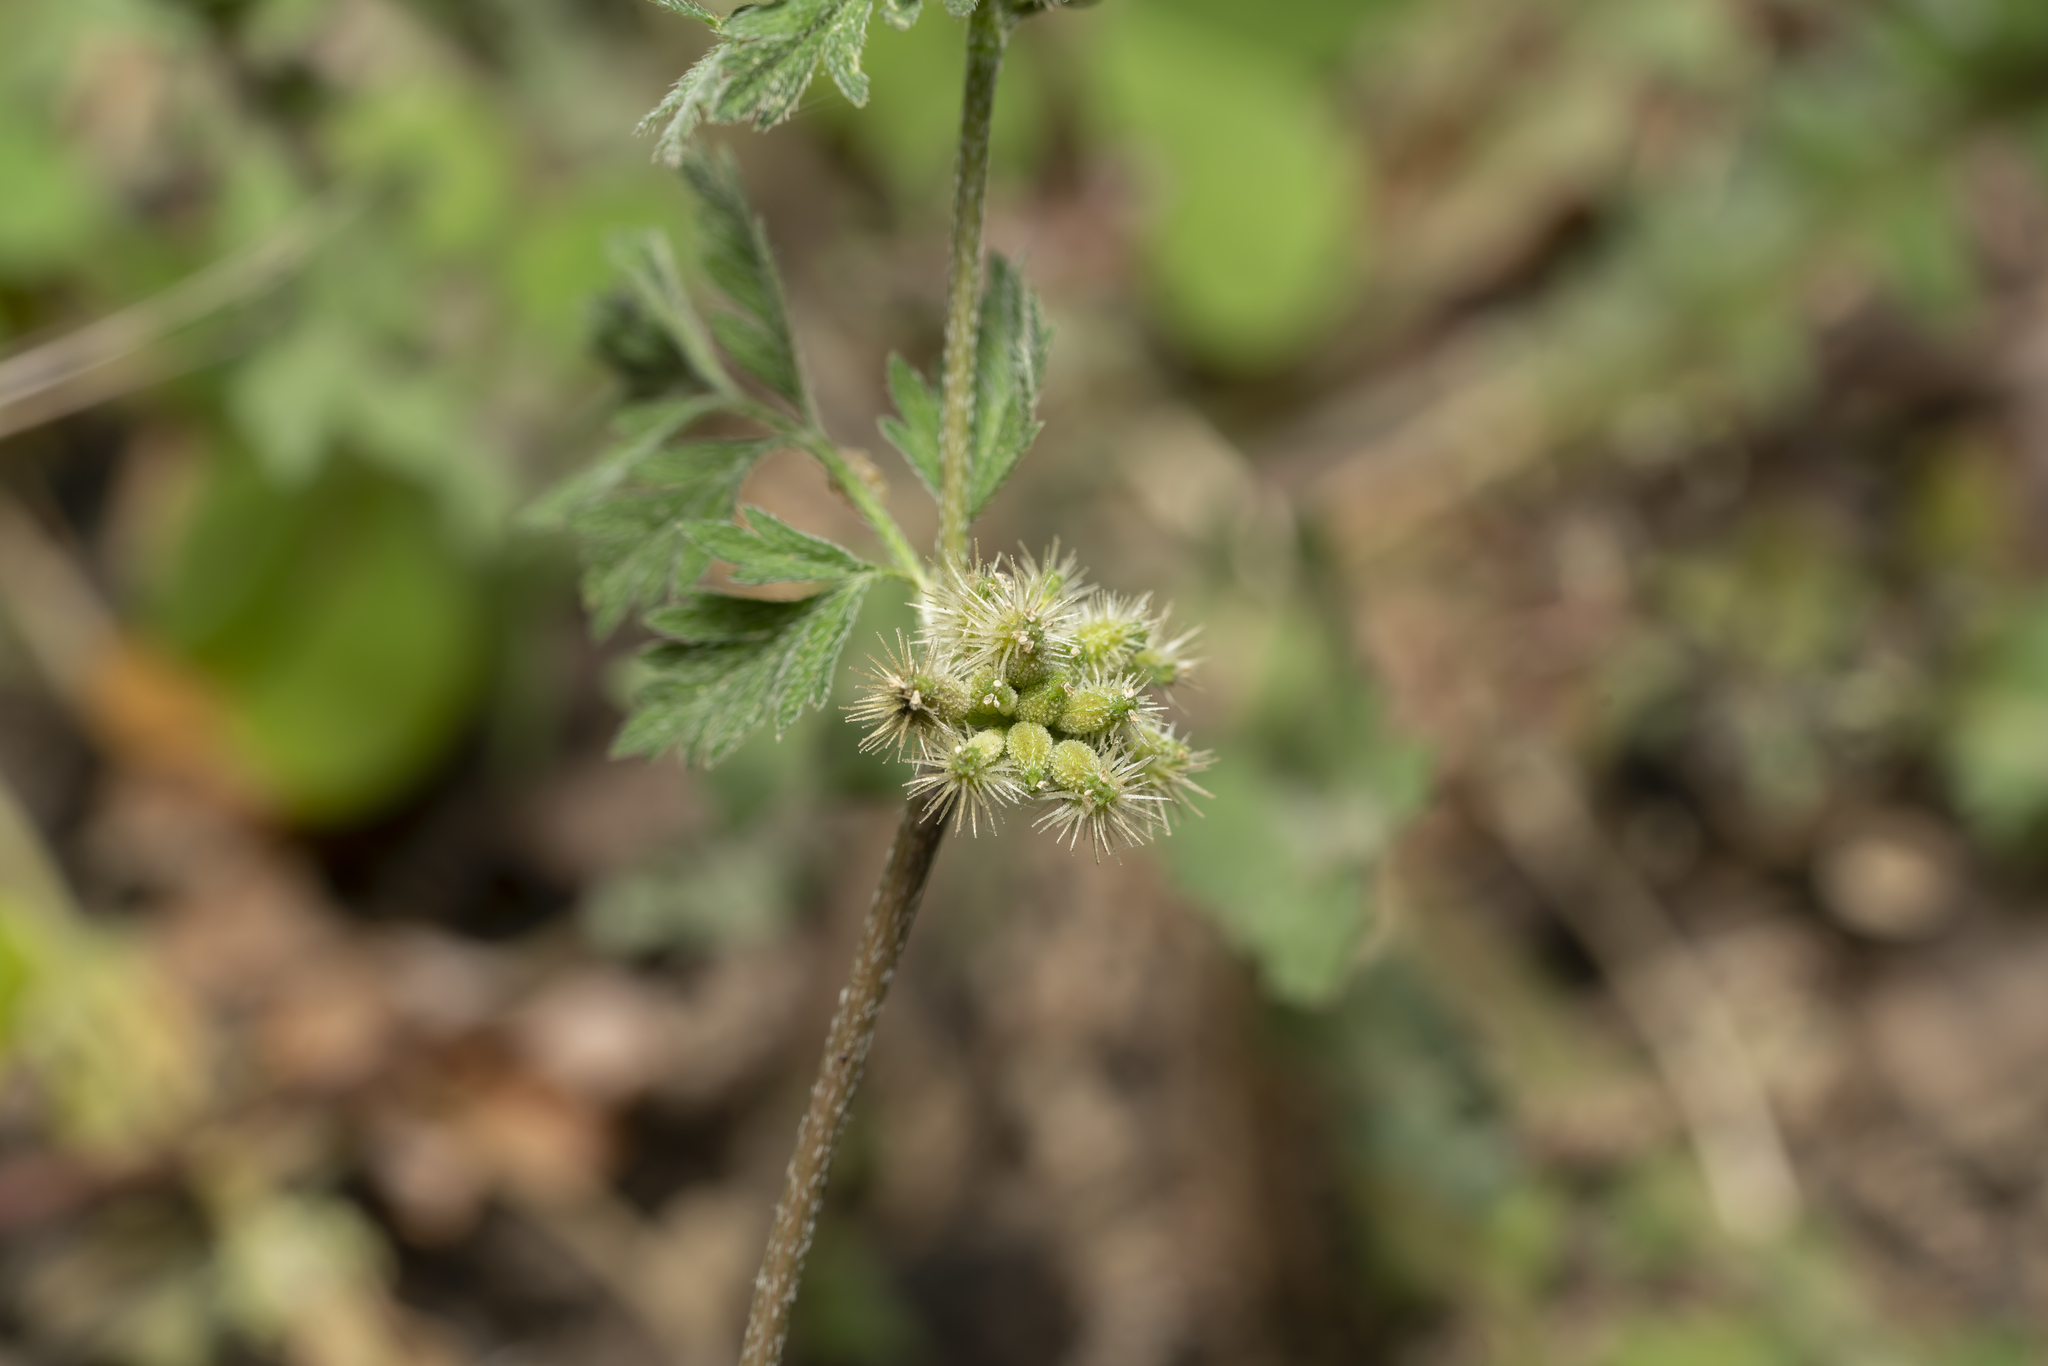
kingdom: Plantae
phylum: Tracheophyta
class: Magnoliopsida
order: Apiales
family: Apiaceae
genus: Torilis
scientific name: Torilis nodosa
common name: Knotted hedge-parsley
